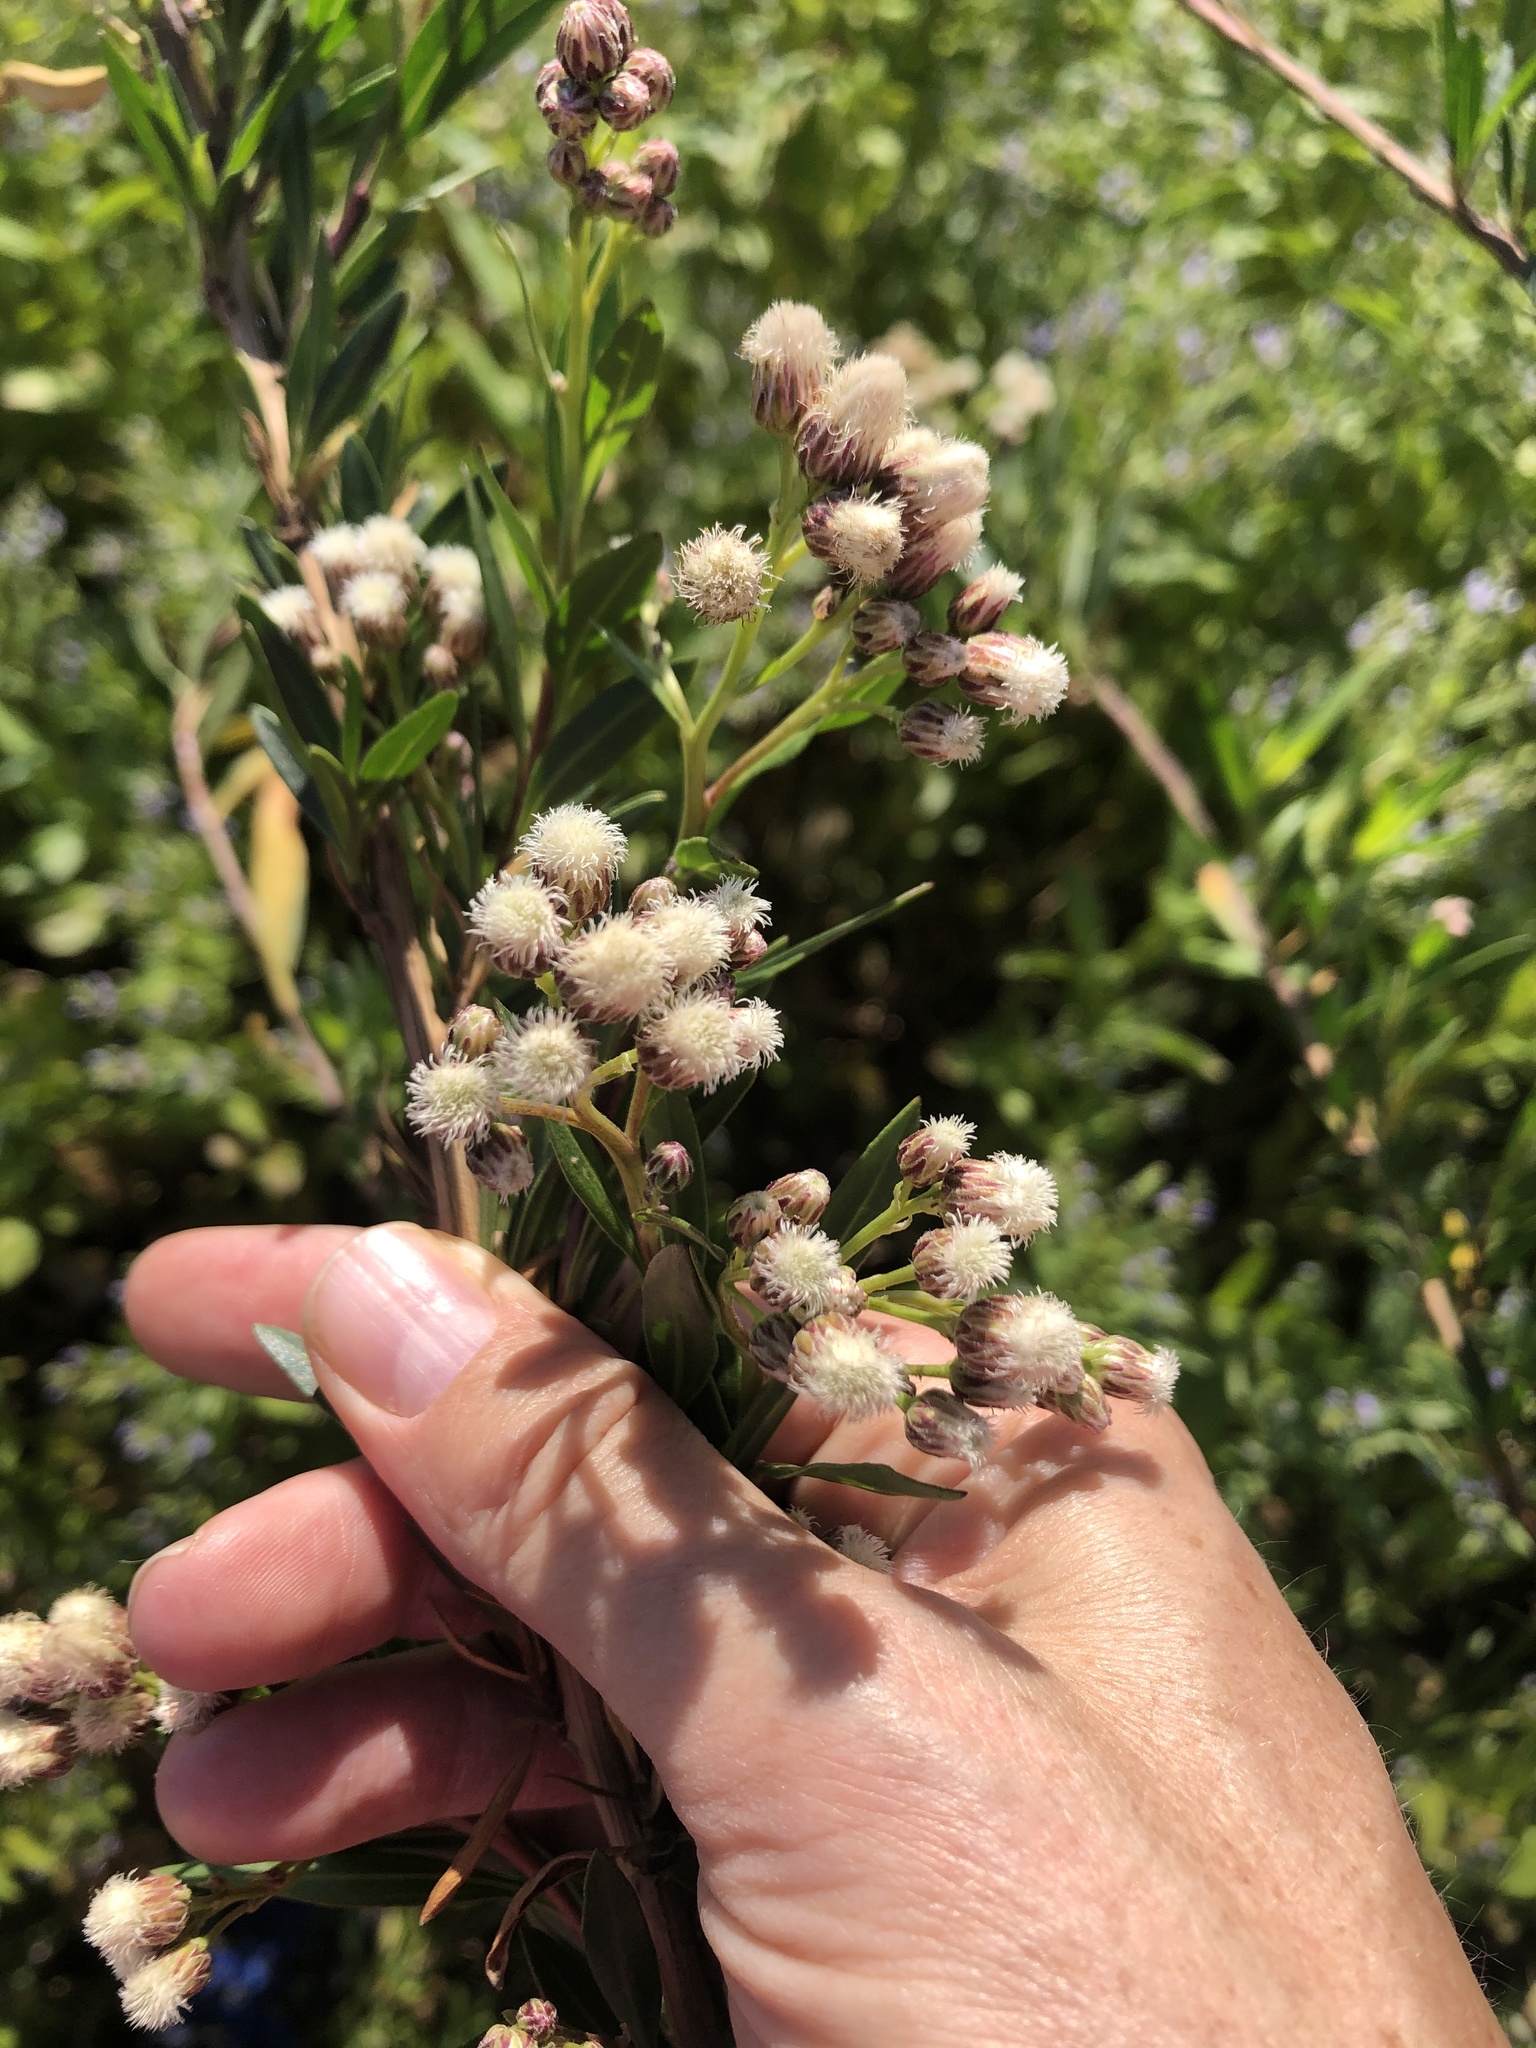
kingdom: Plantae
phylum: Tracheophyta
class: Magnoliopsida
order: Asterales
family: Asteraceae
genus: Baccharis
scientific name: Baccharis salicifolia
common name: Sticky baccharis
